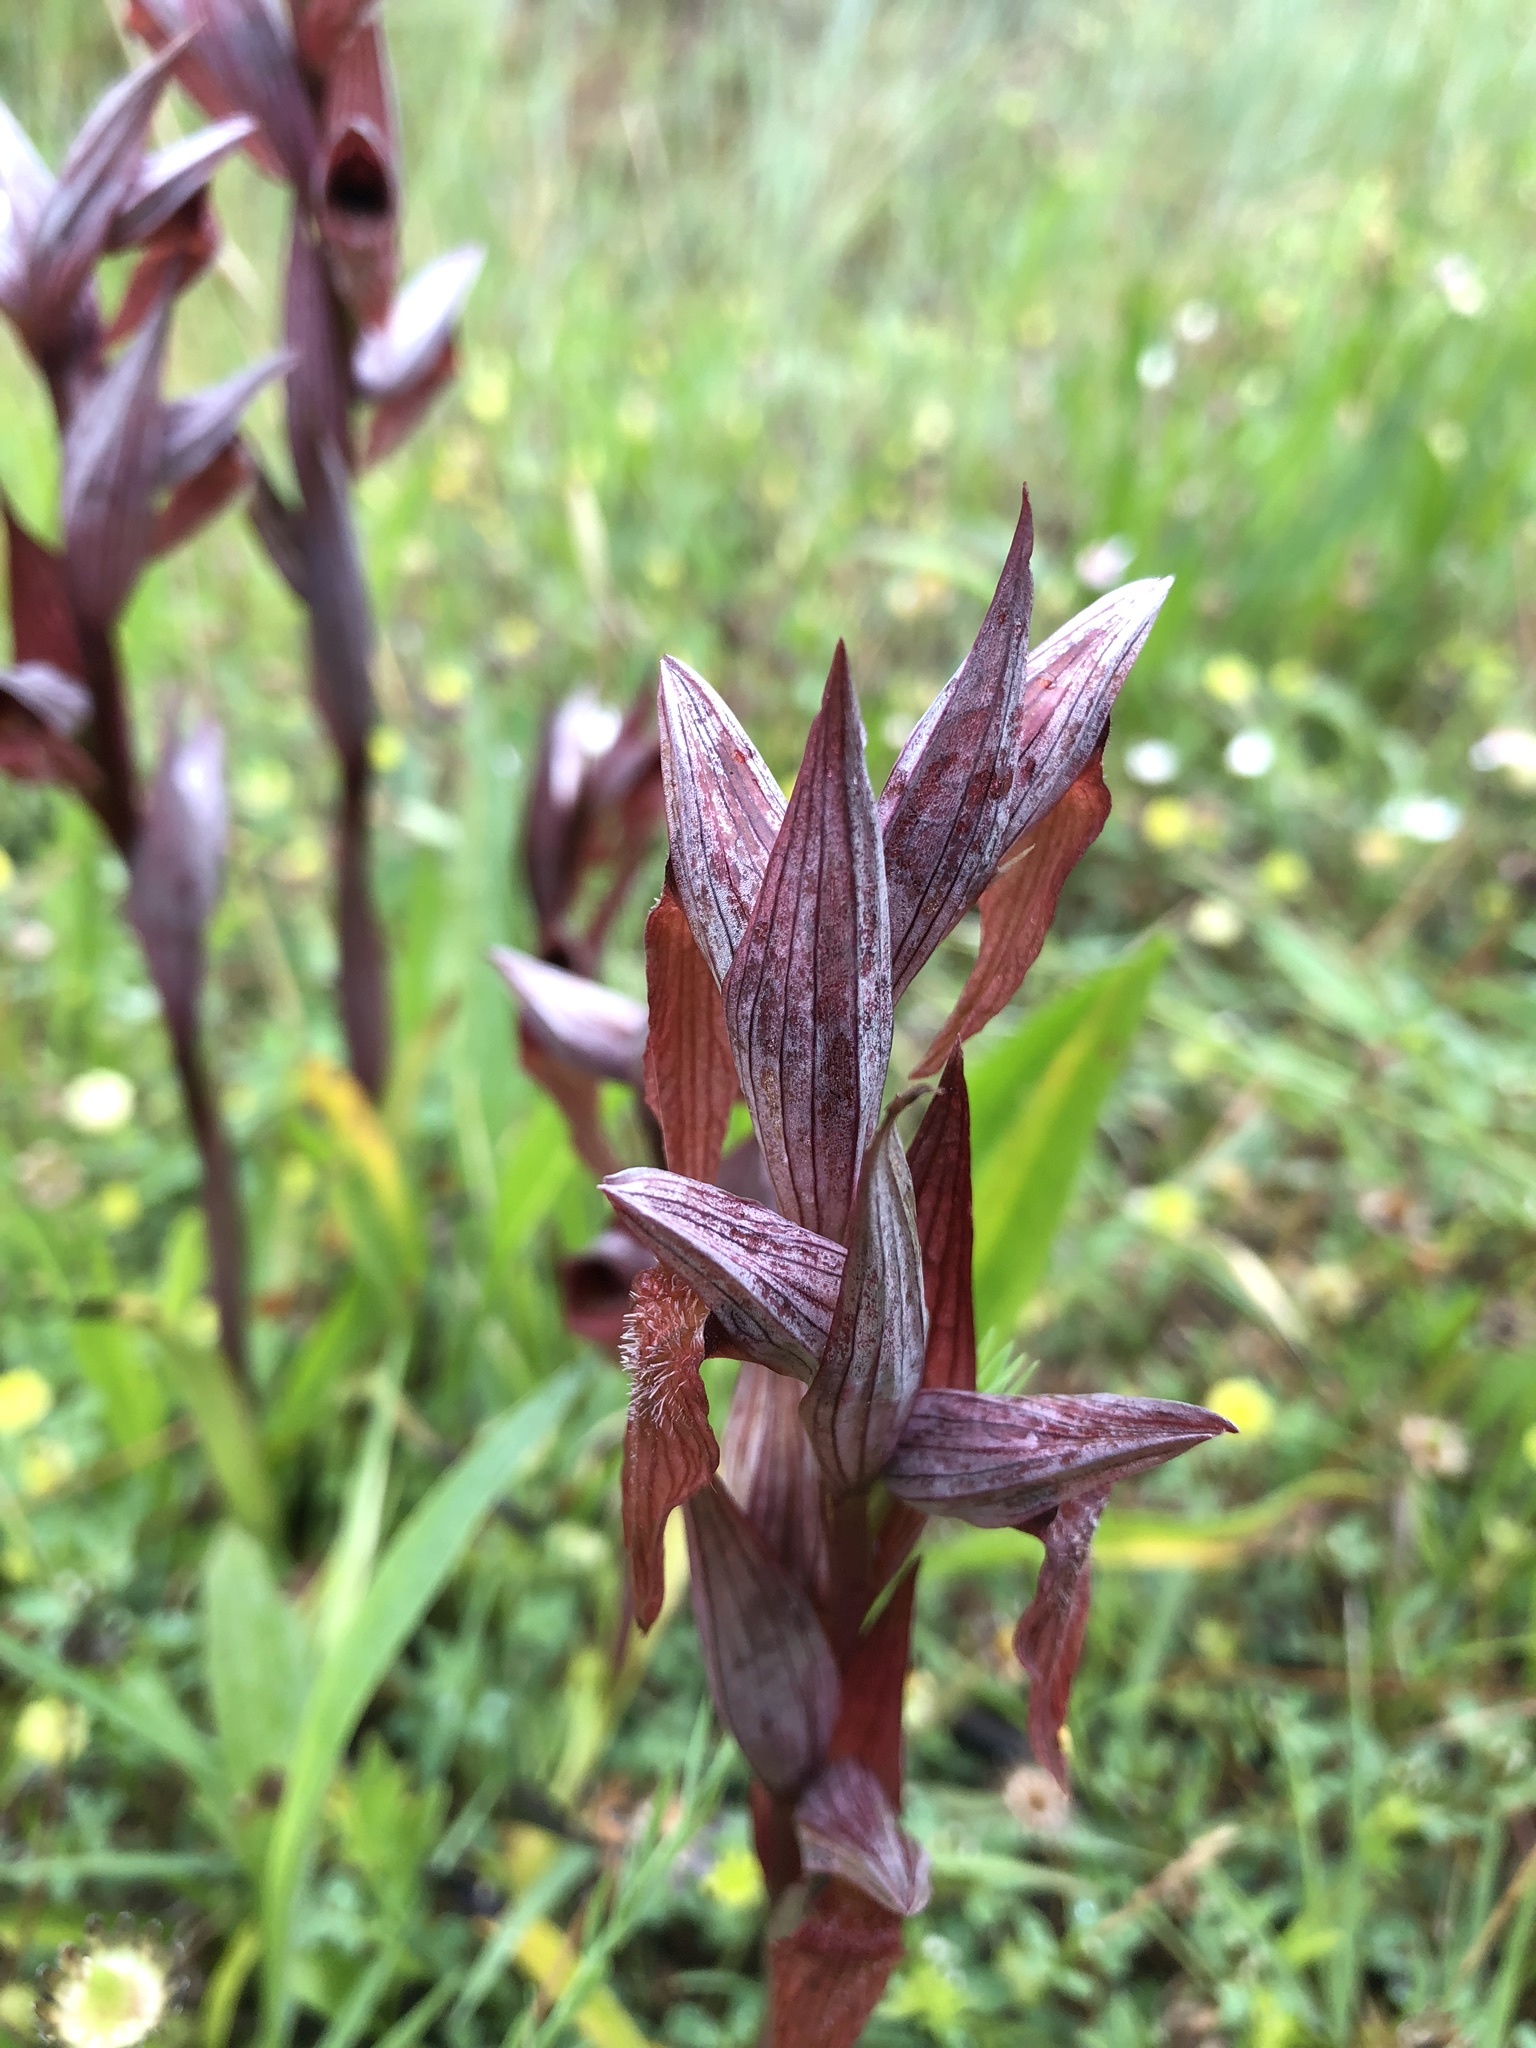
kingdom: Plantae
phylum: Tracheophyta
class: Liliopsida
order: Asparagales
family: Orchidaceae
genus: Serapias
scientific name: Serapias vomeracea
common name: Long-lipped tongue-orchid
